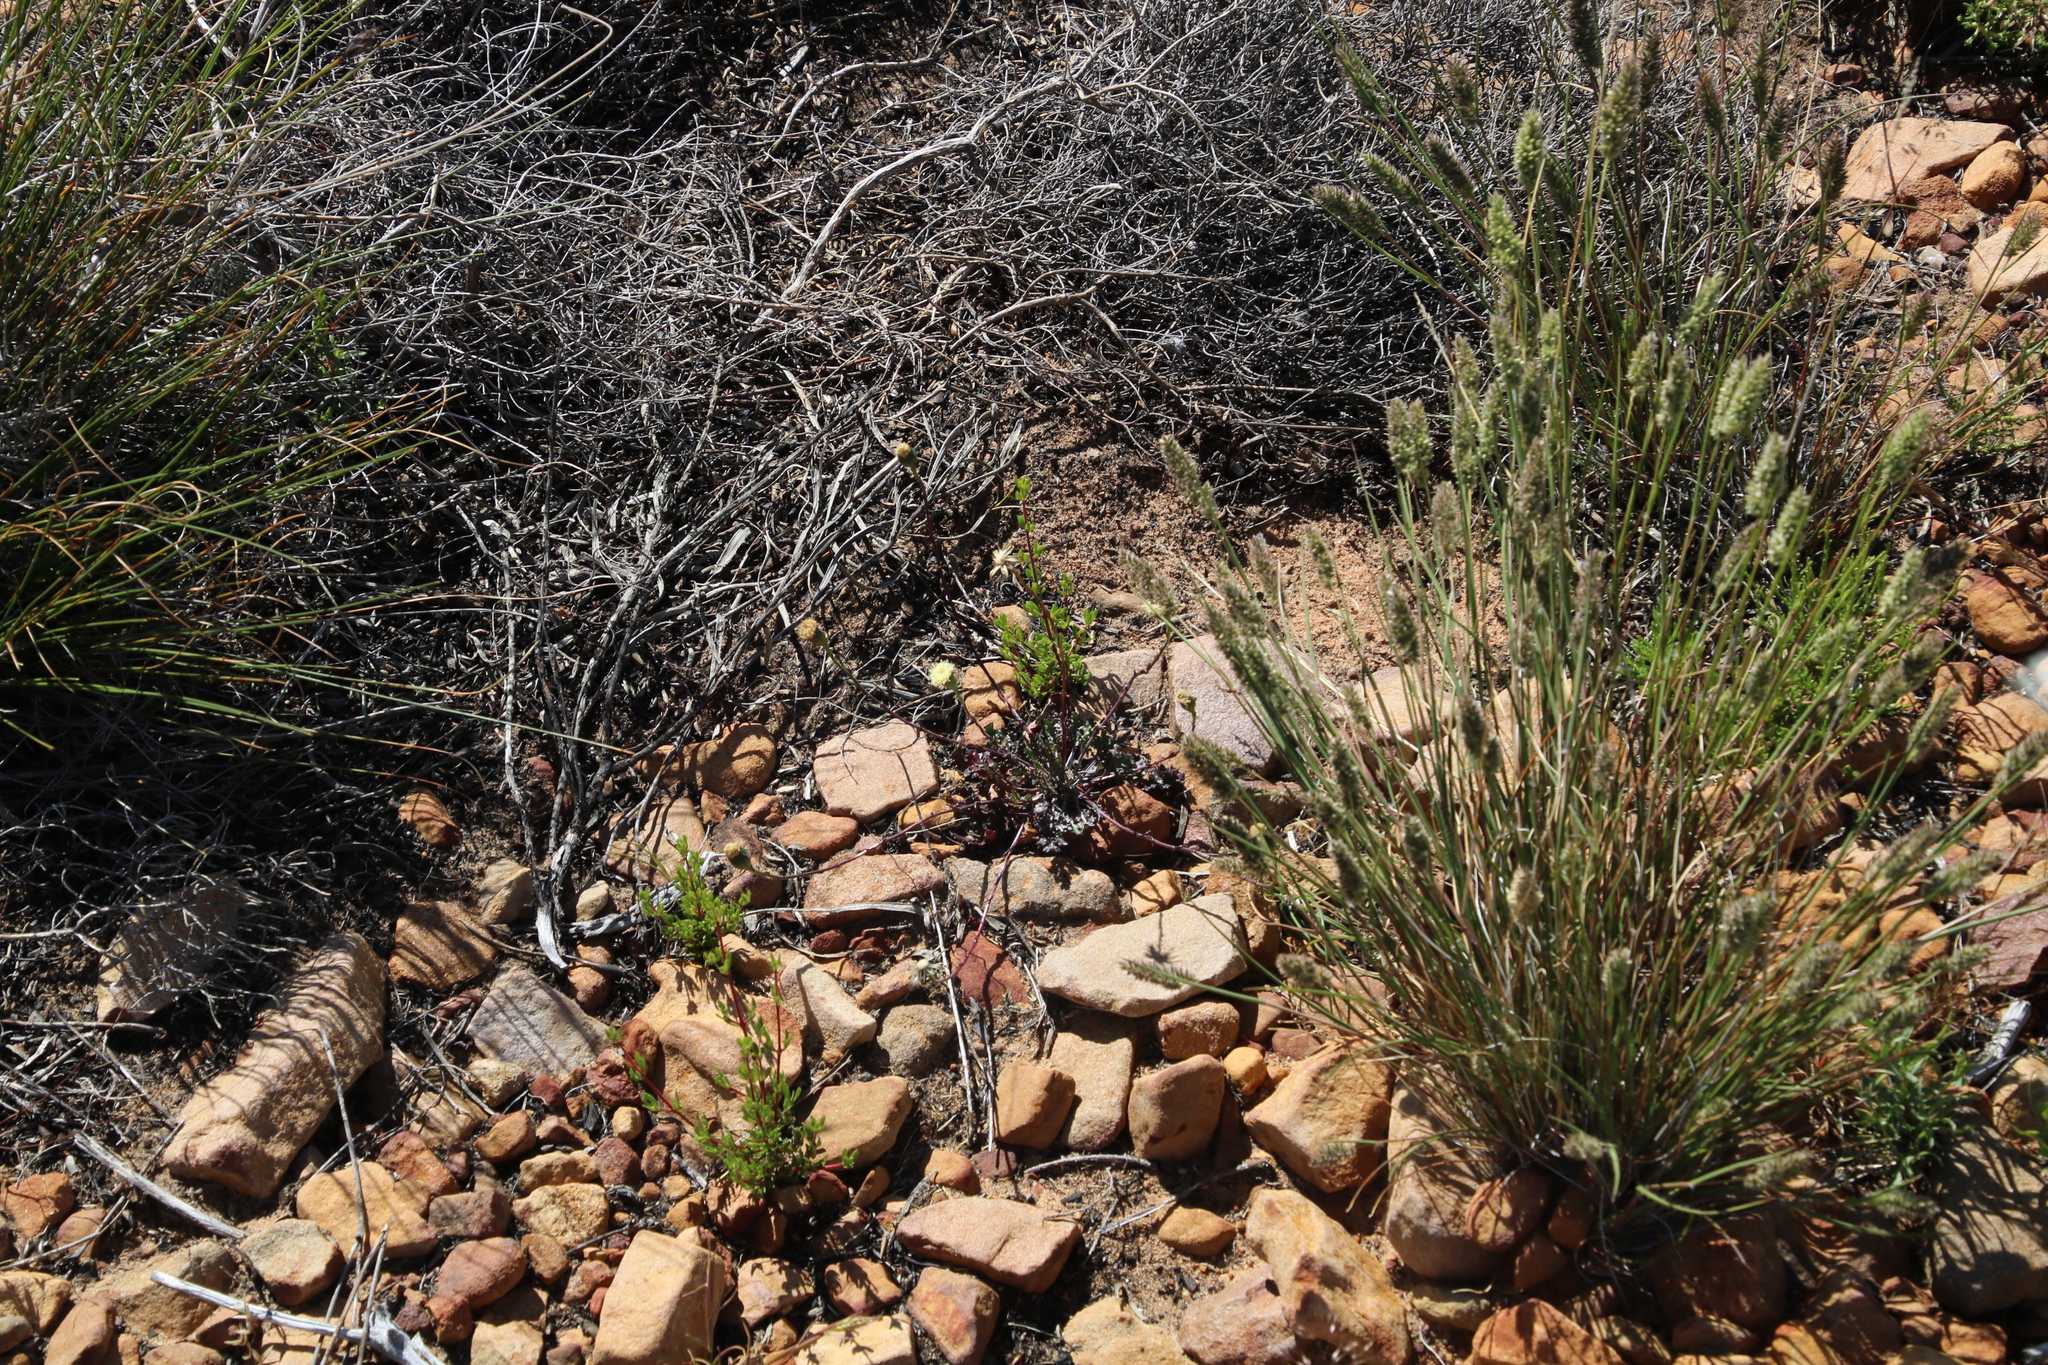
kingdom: Plantae
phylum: Tracheophyta
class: Magnoliopsida
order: Asterales
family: Asteraceae
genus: Bolandia
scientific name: Bolandia pinnatifida
